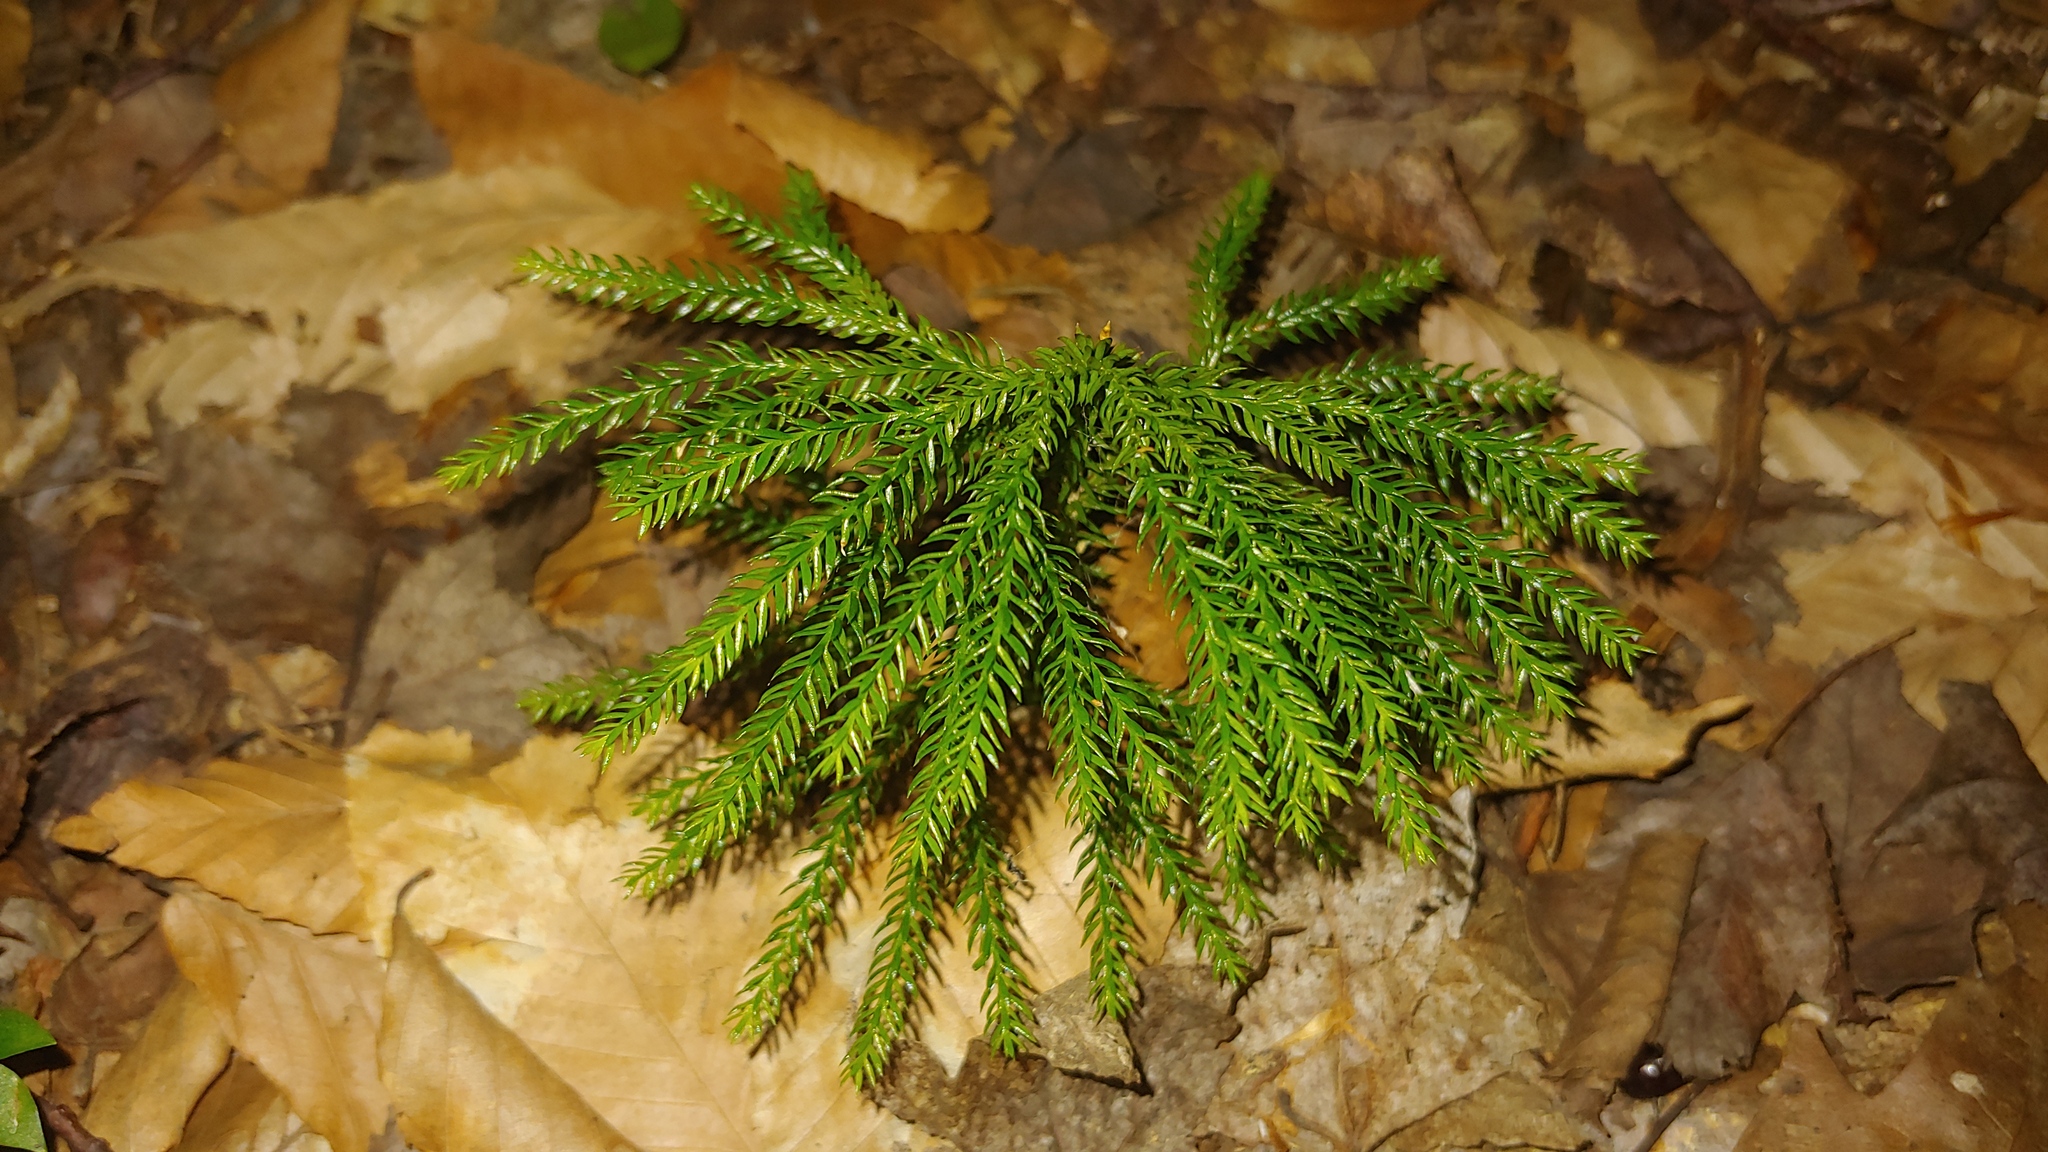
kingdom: Plantae
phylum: Tracheophyta
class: Lycopodiopsida
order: Lycopodiales
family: Lycopodiaceae
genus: Dendrolycopodium
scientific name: Dendrolycopodium dendroideum
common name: Northern tree-clubmoss
